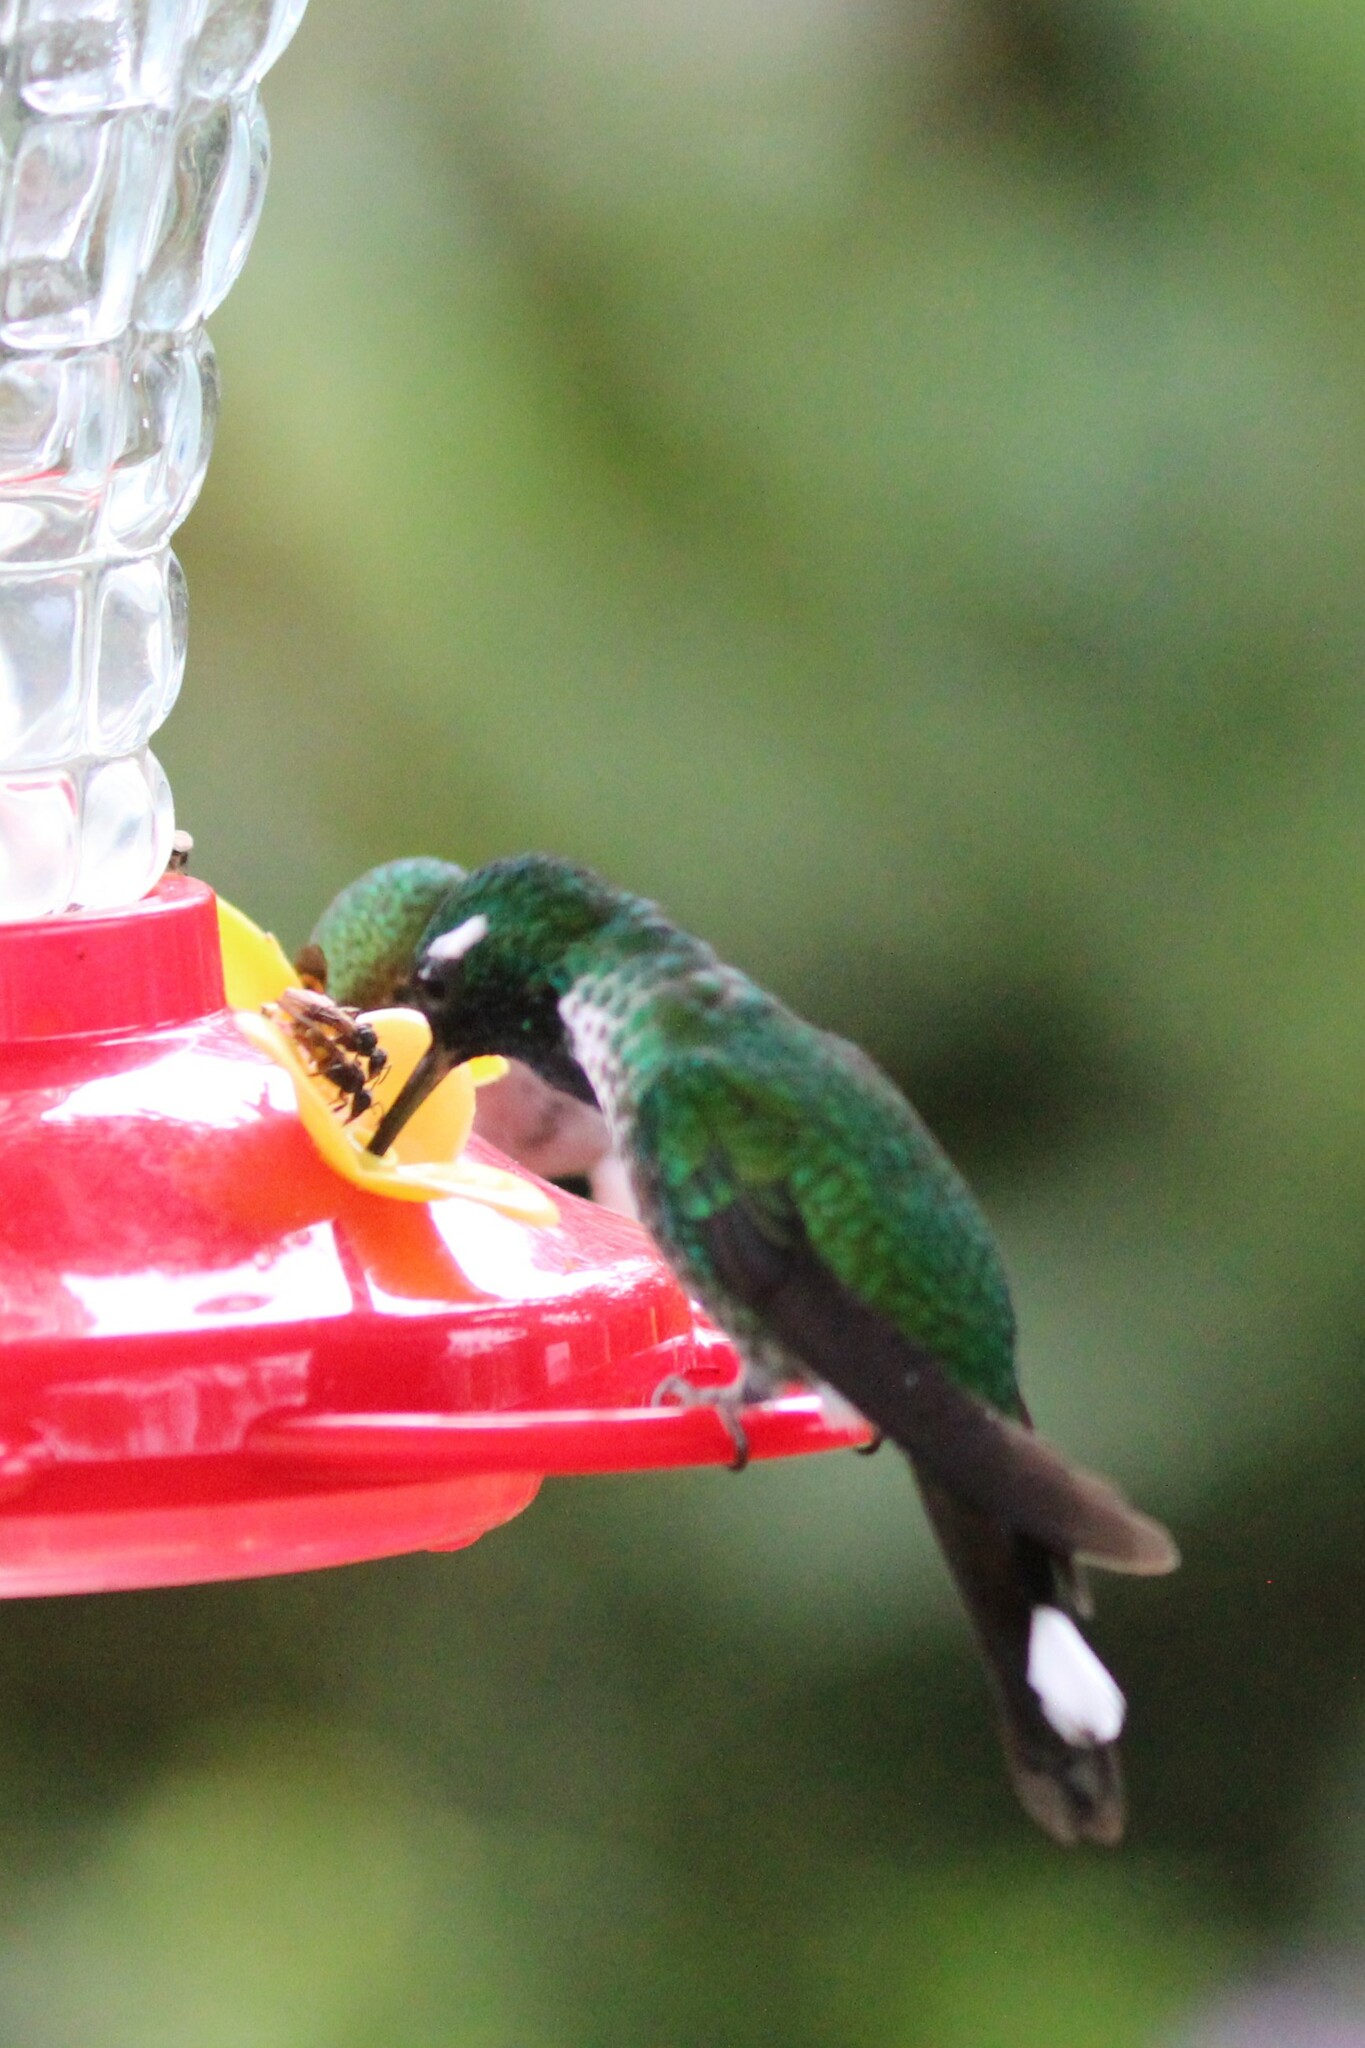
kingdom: Animalia
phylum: Chordata
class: Aves
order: Apodiformes
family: Trochilidae
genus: Urosticte
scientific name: Urosticte benjamini
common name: Purple-bibbed whitetip
